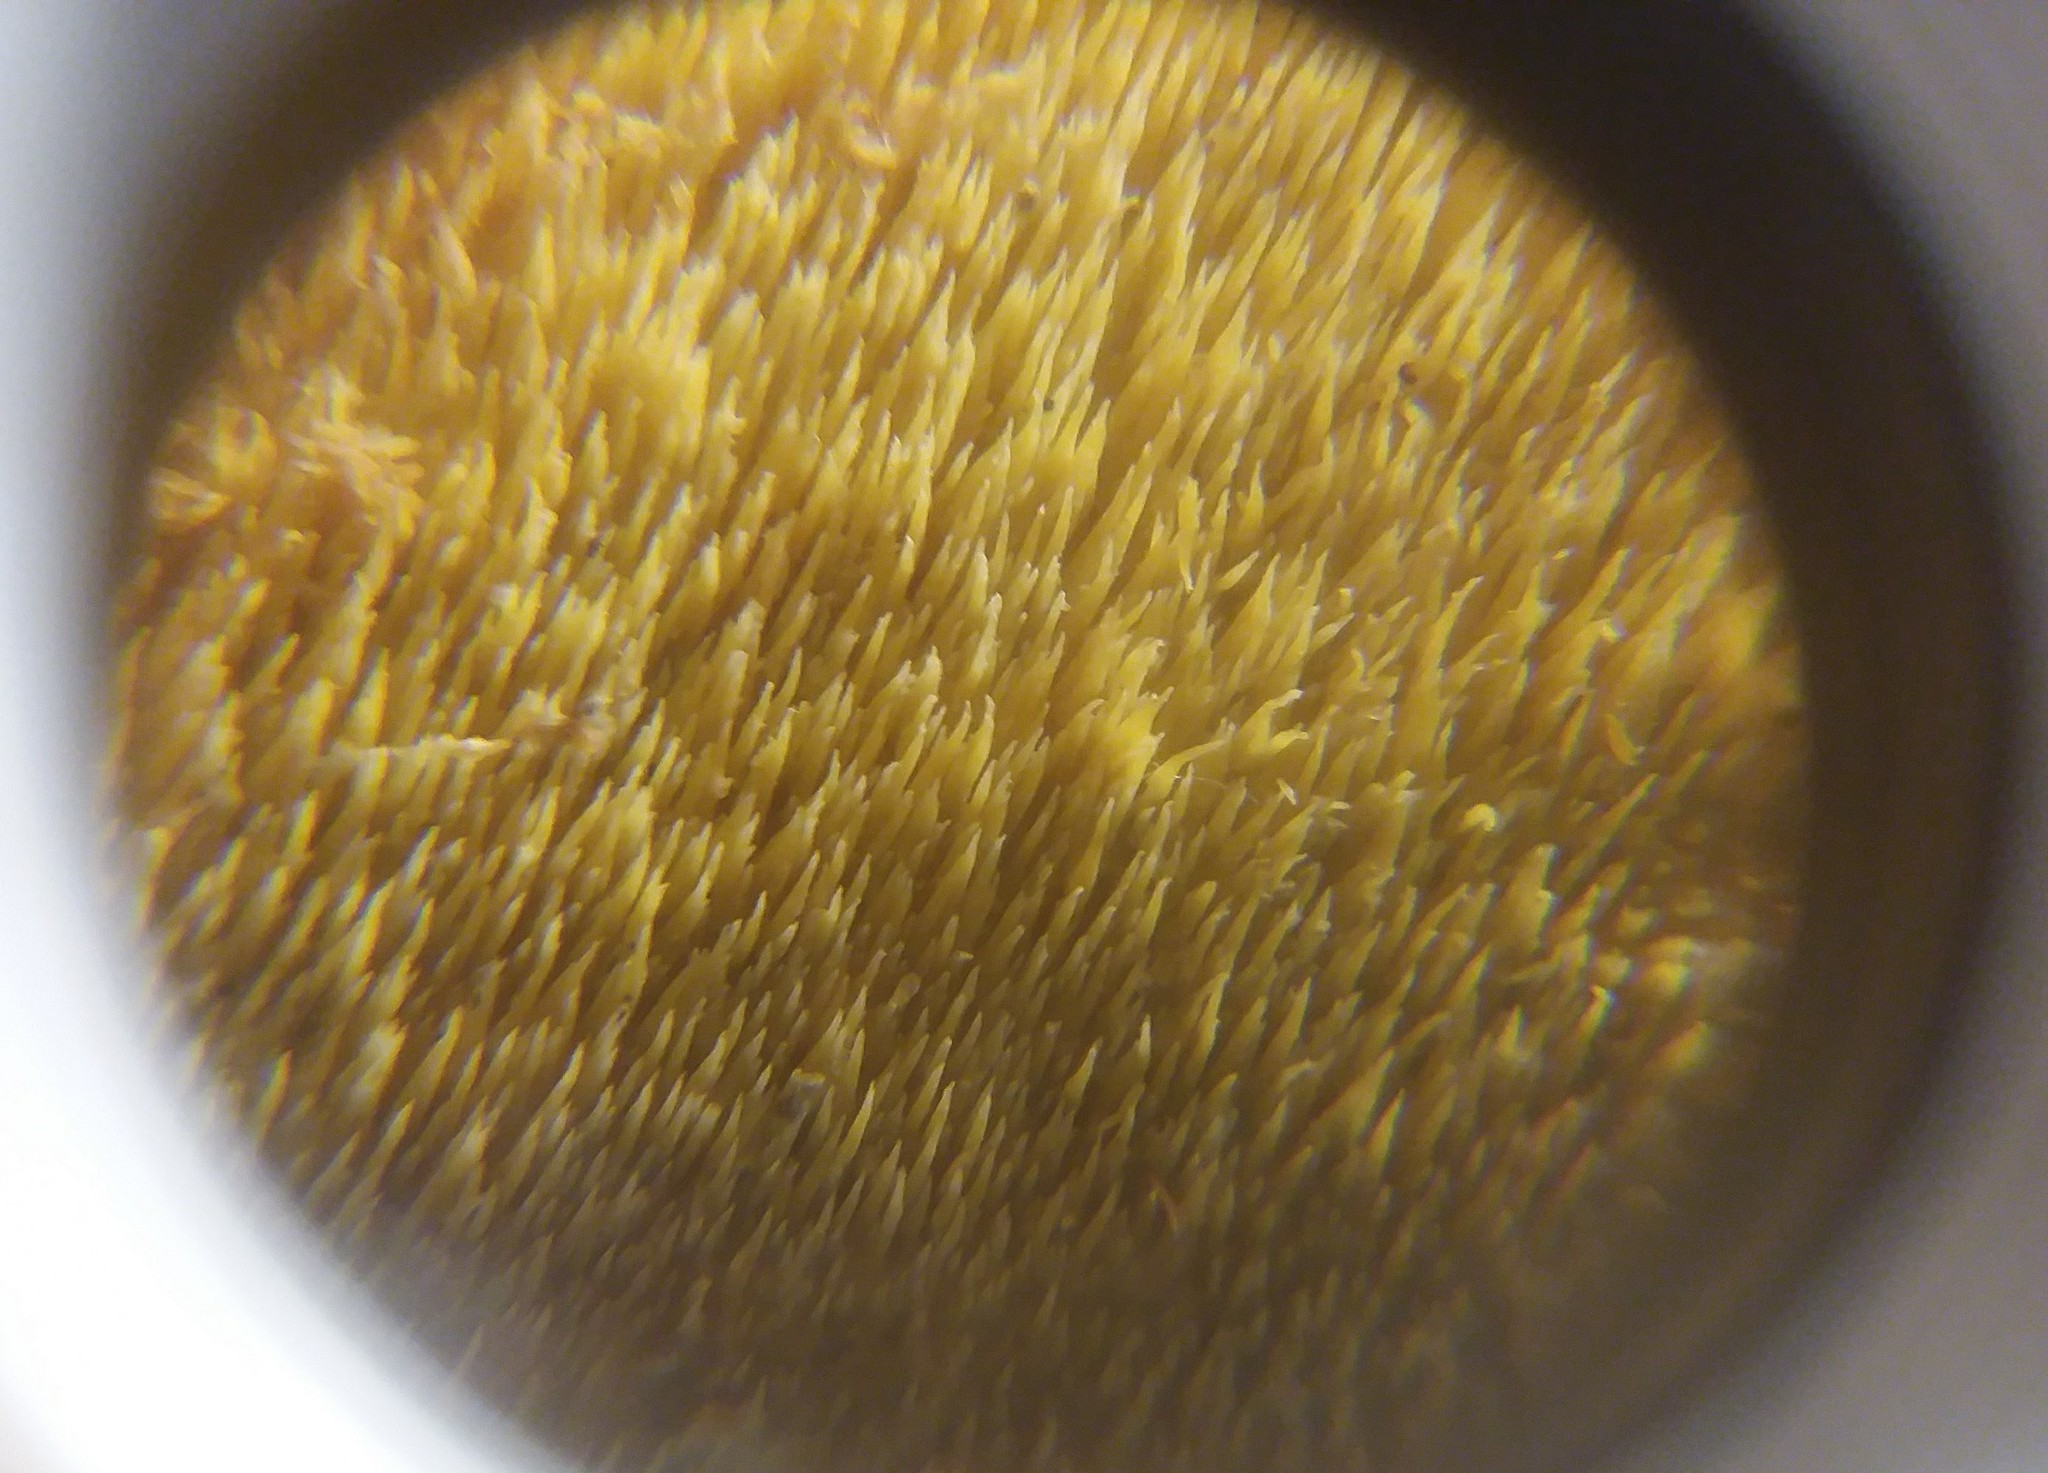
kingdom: Fungi
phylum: Basidiomycota
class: Agaricomycetes
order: Polyporales
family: Meruliaceae
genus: Mycoacia
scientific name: Mycoacia uda
